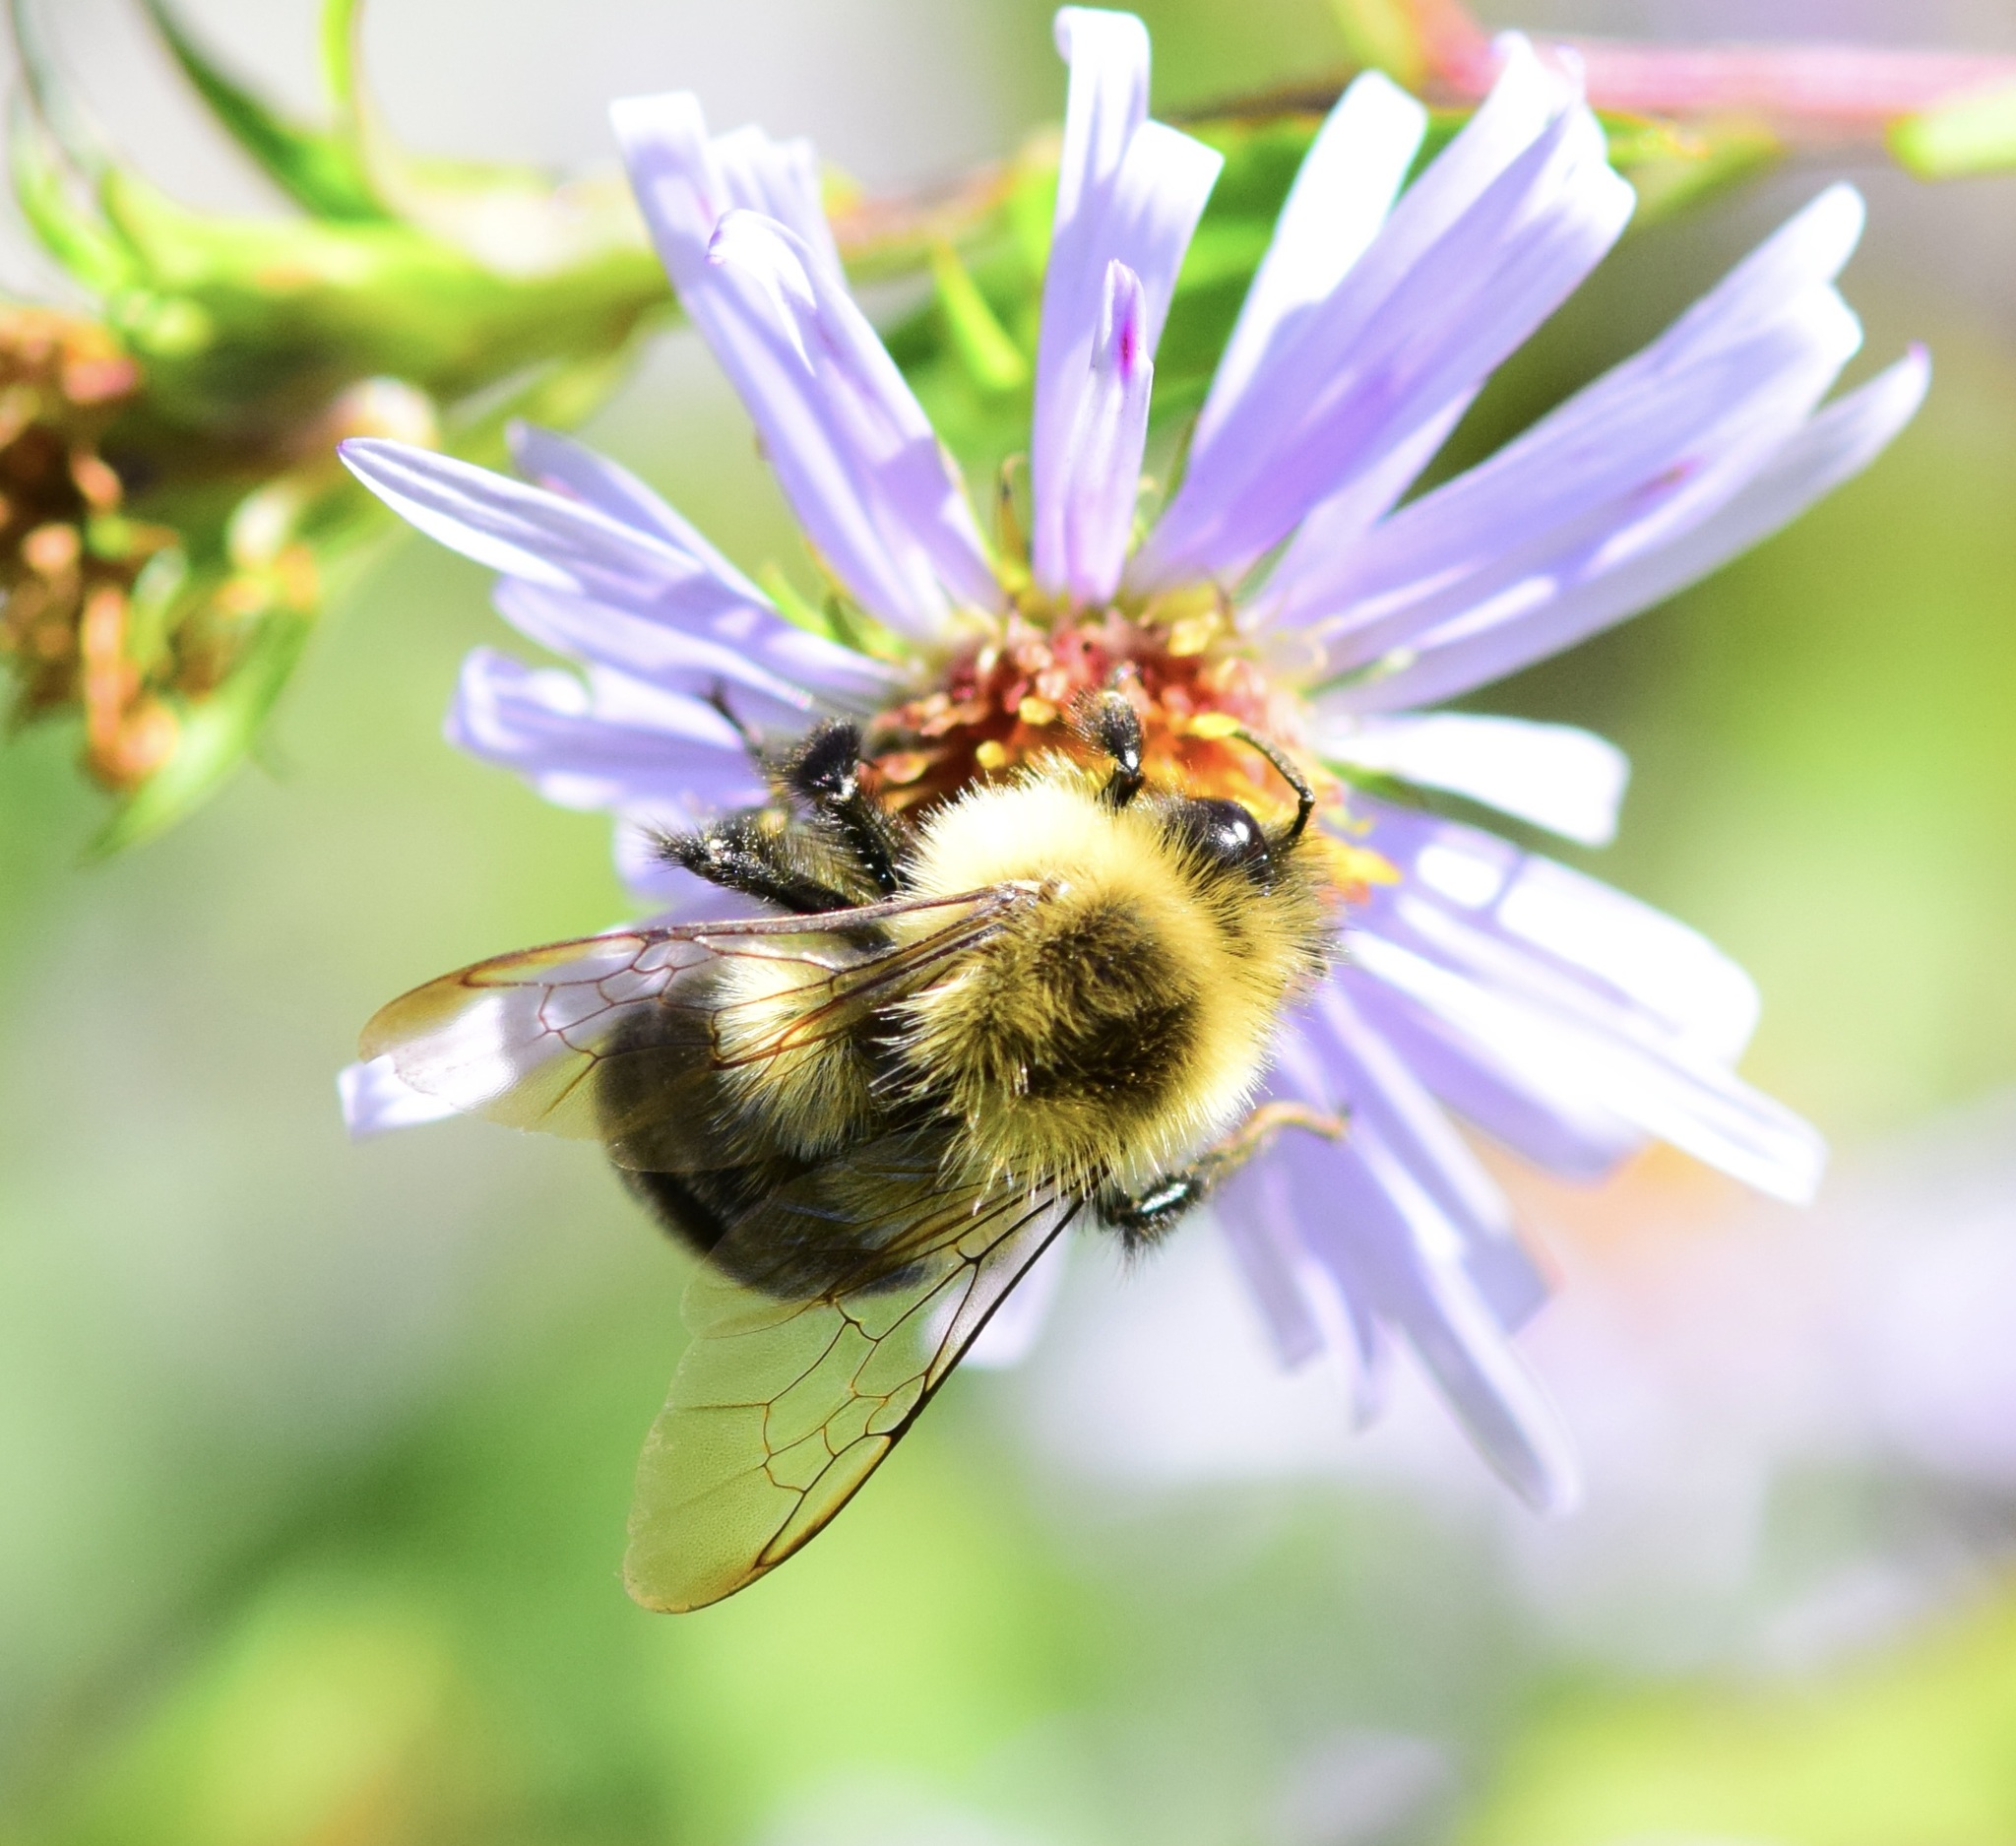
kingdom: Animalia
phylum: Arthropoda
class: Insecta
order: Hymenoptera
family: Apidae
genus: Bombus
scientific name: Bombus impatiens
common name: Common eastern bumble bee
